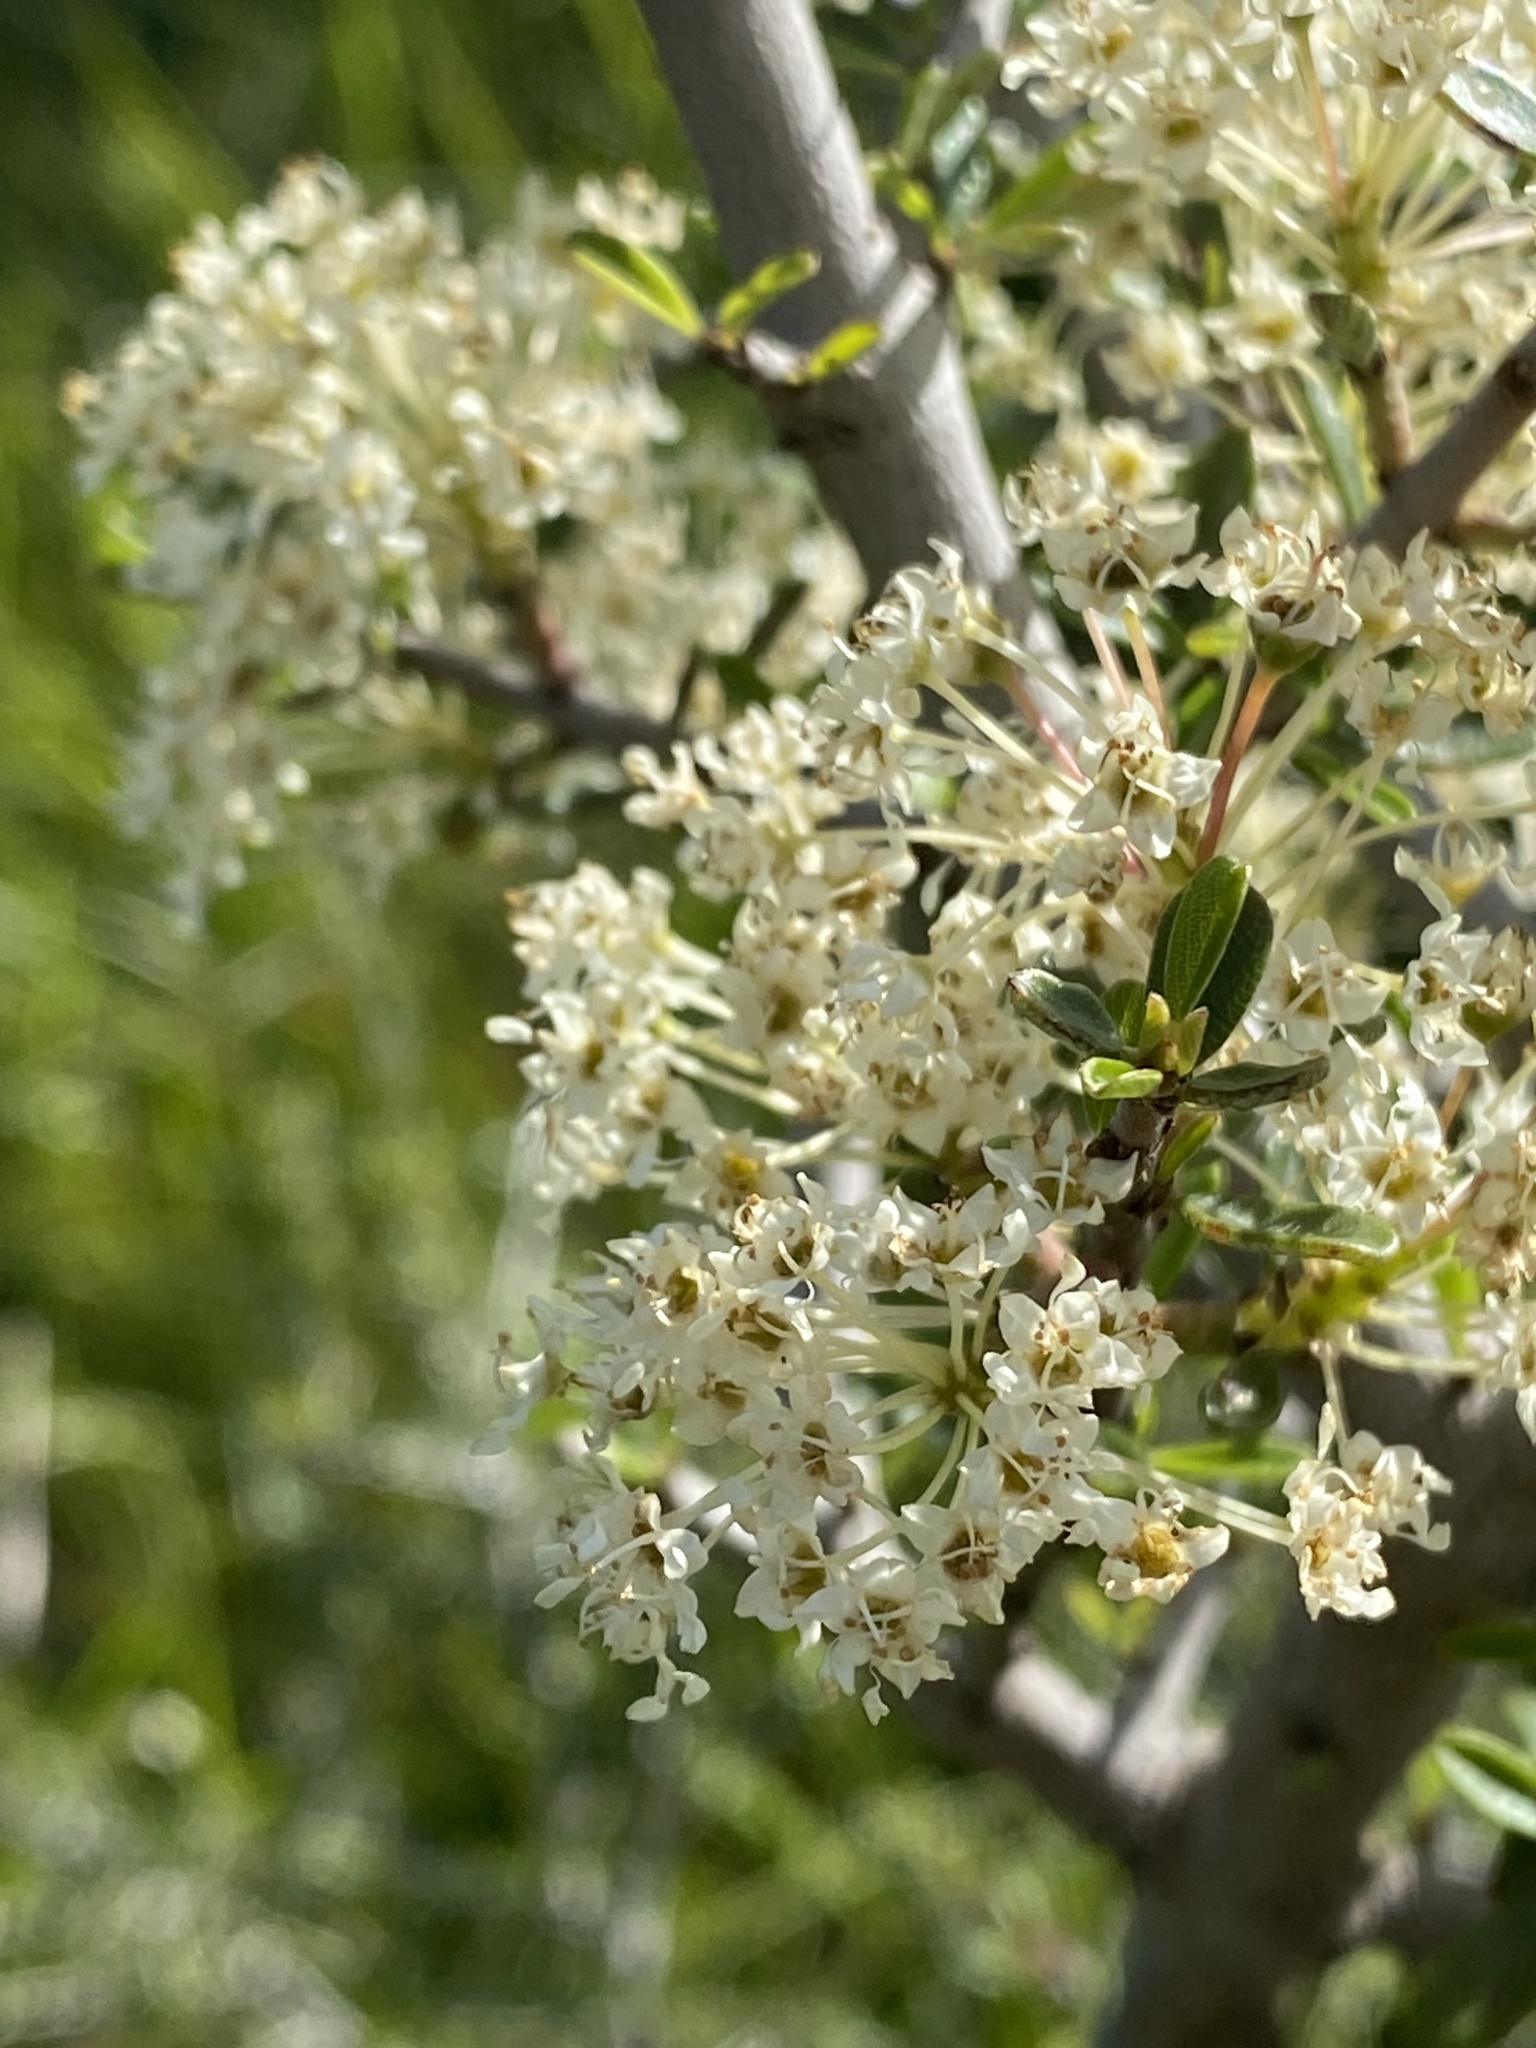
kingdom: Plantae
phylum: Tracheophyta
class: Magnoliopsida
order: Rosales
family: Rhamnaceae
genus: Ceanothus
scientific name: Ceanothus cuneatus
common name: Cuneate ceanothus
